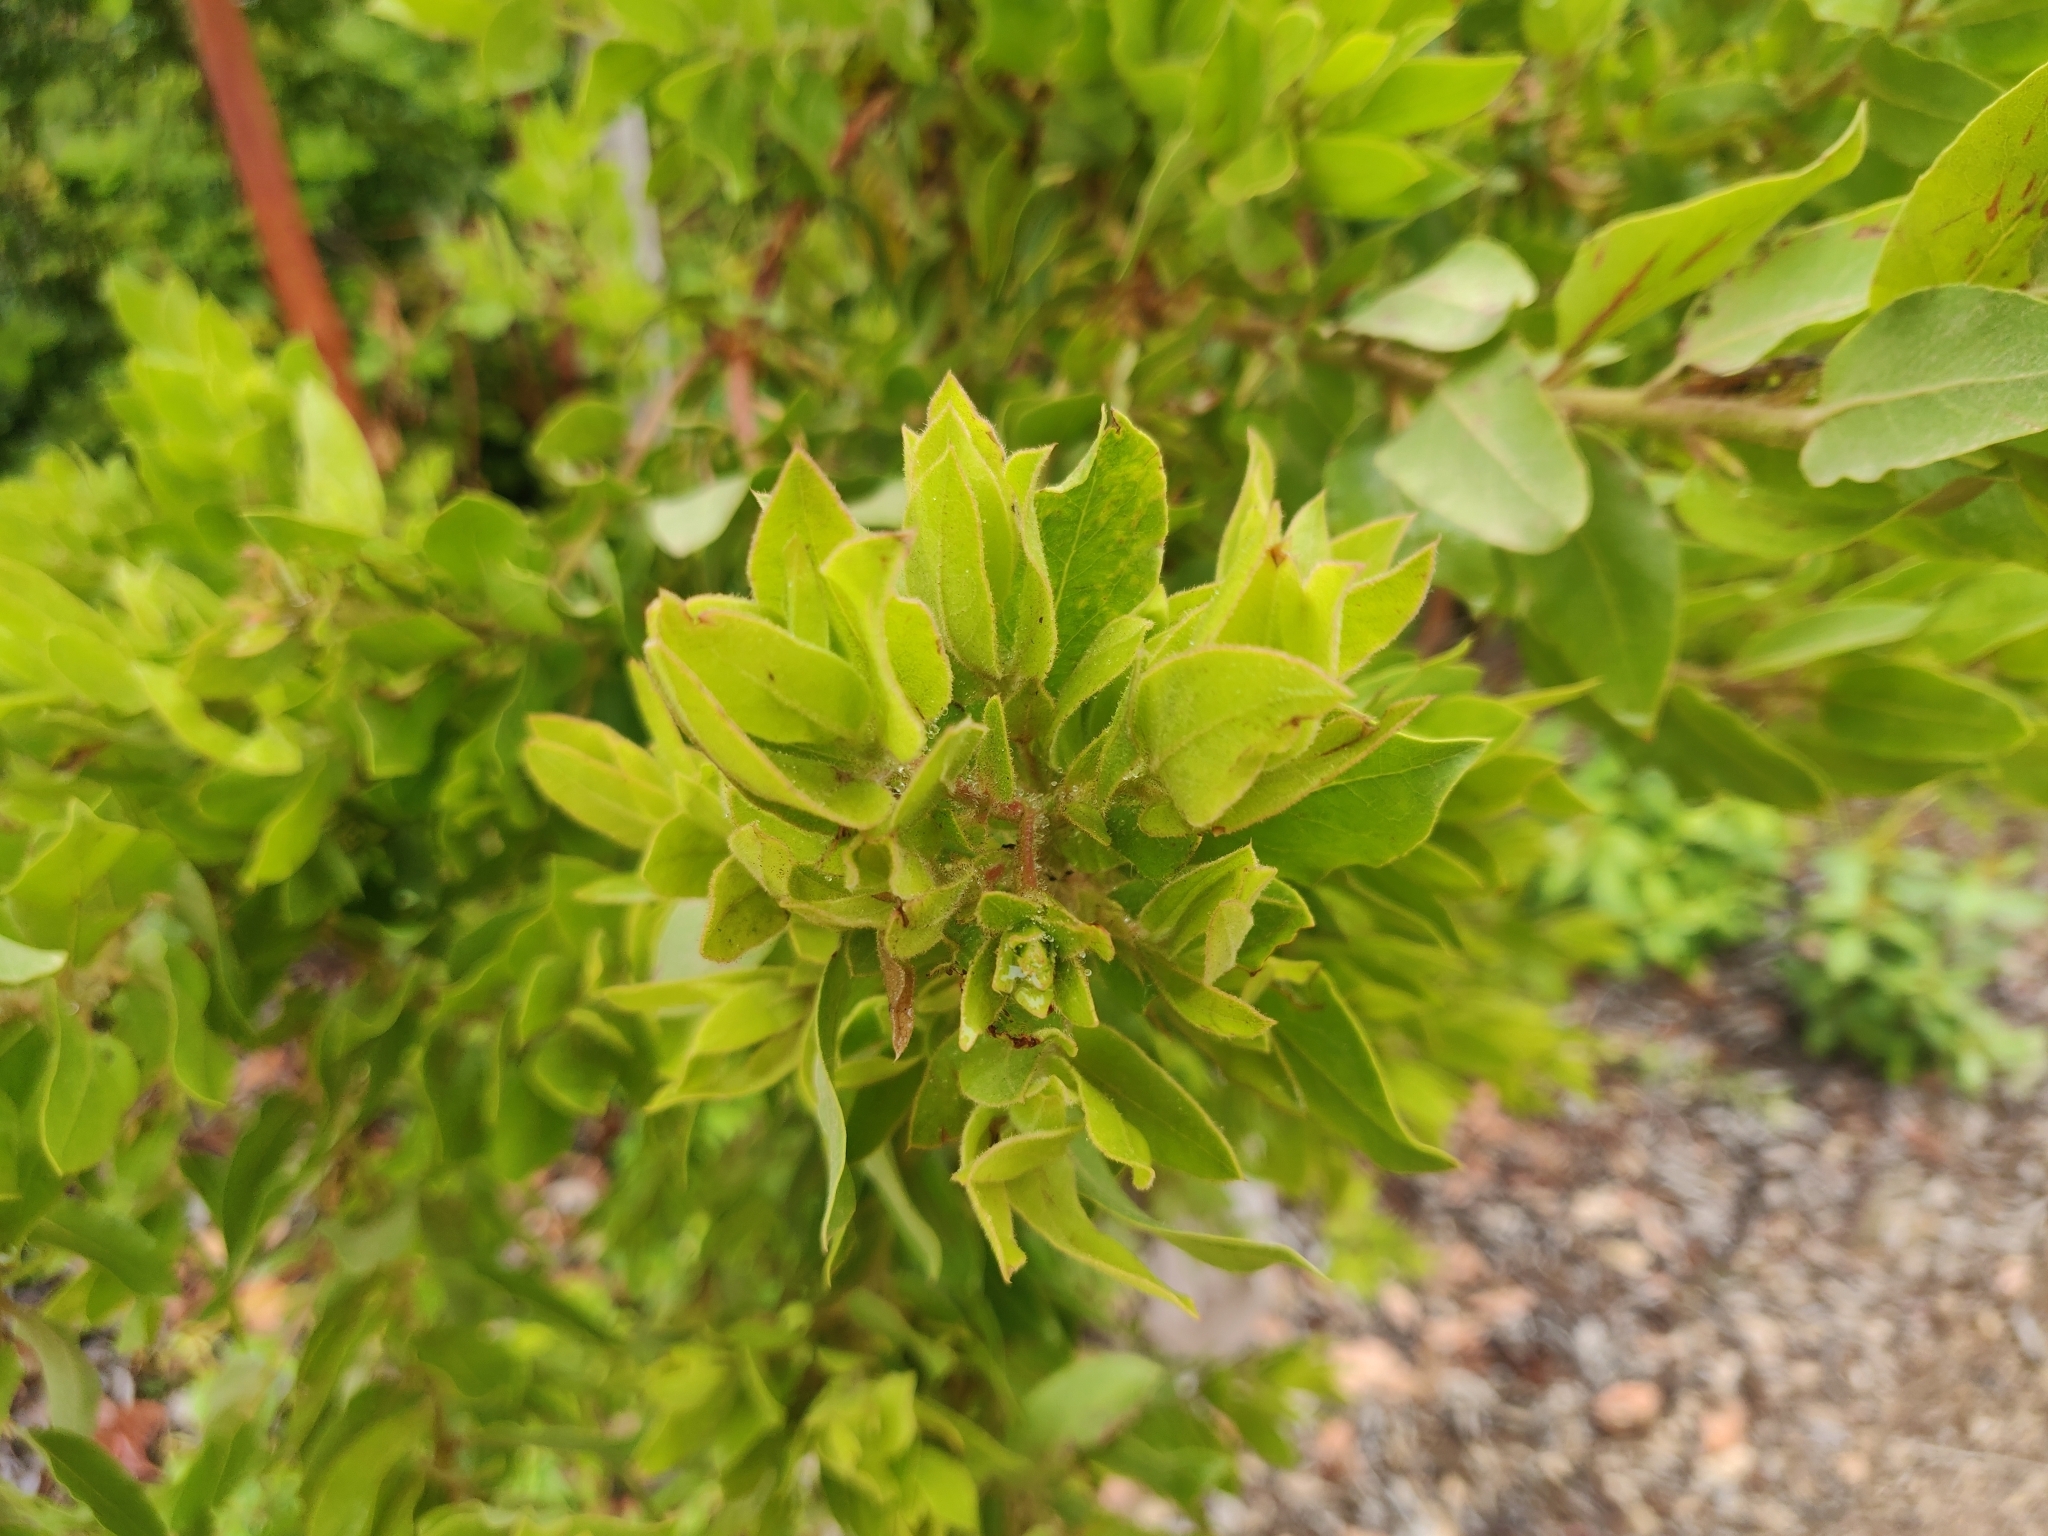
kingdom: Plantae
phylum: Tracheophyta
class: Magnoliopsida
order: Ericales
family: Ericaceae
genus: Arctostaphylos
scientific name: Arctostaphylos virgata
